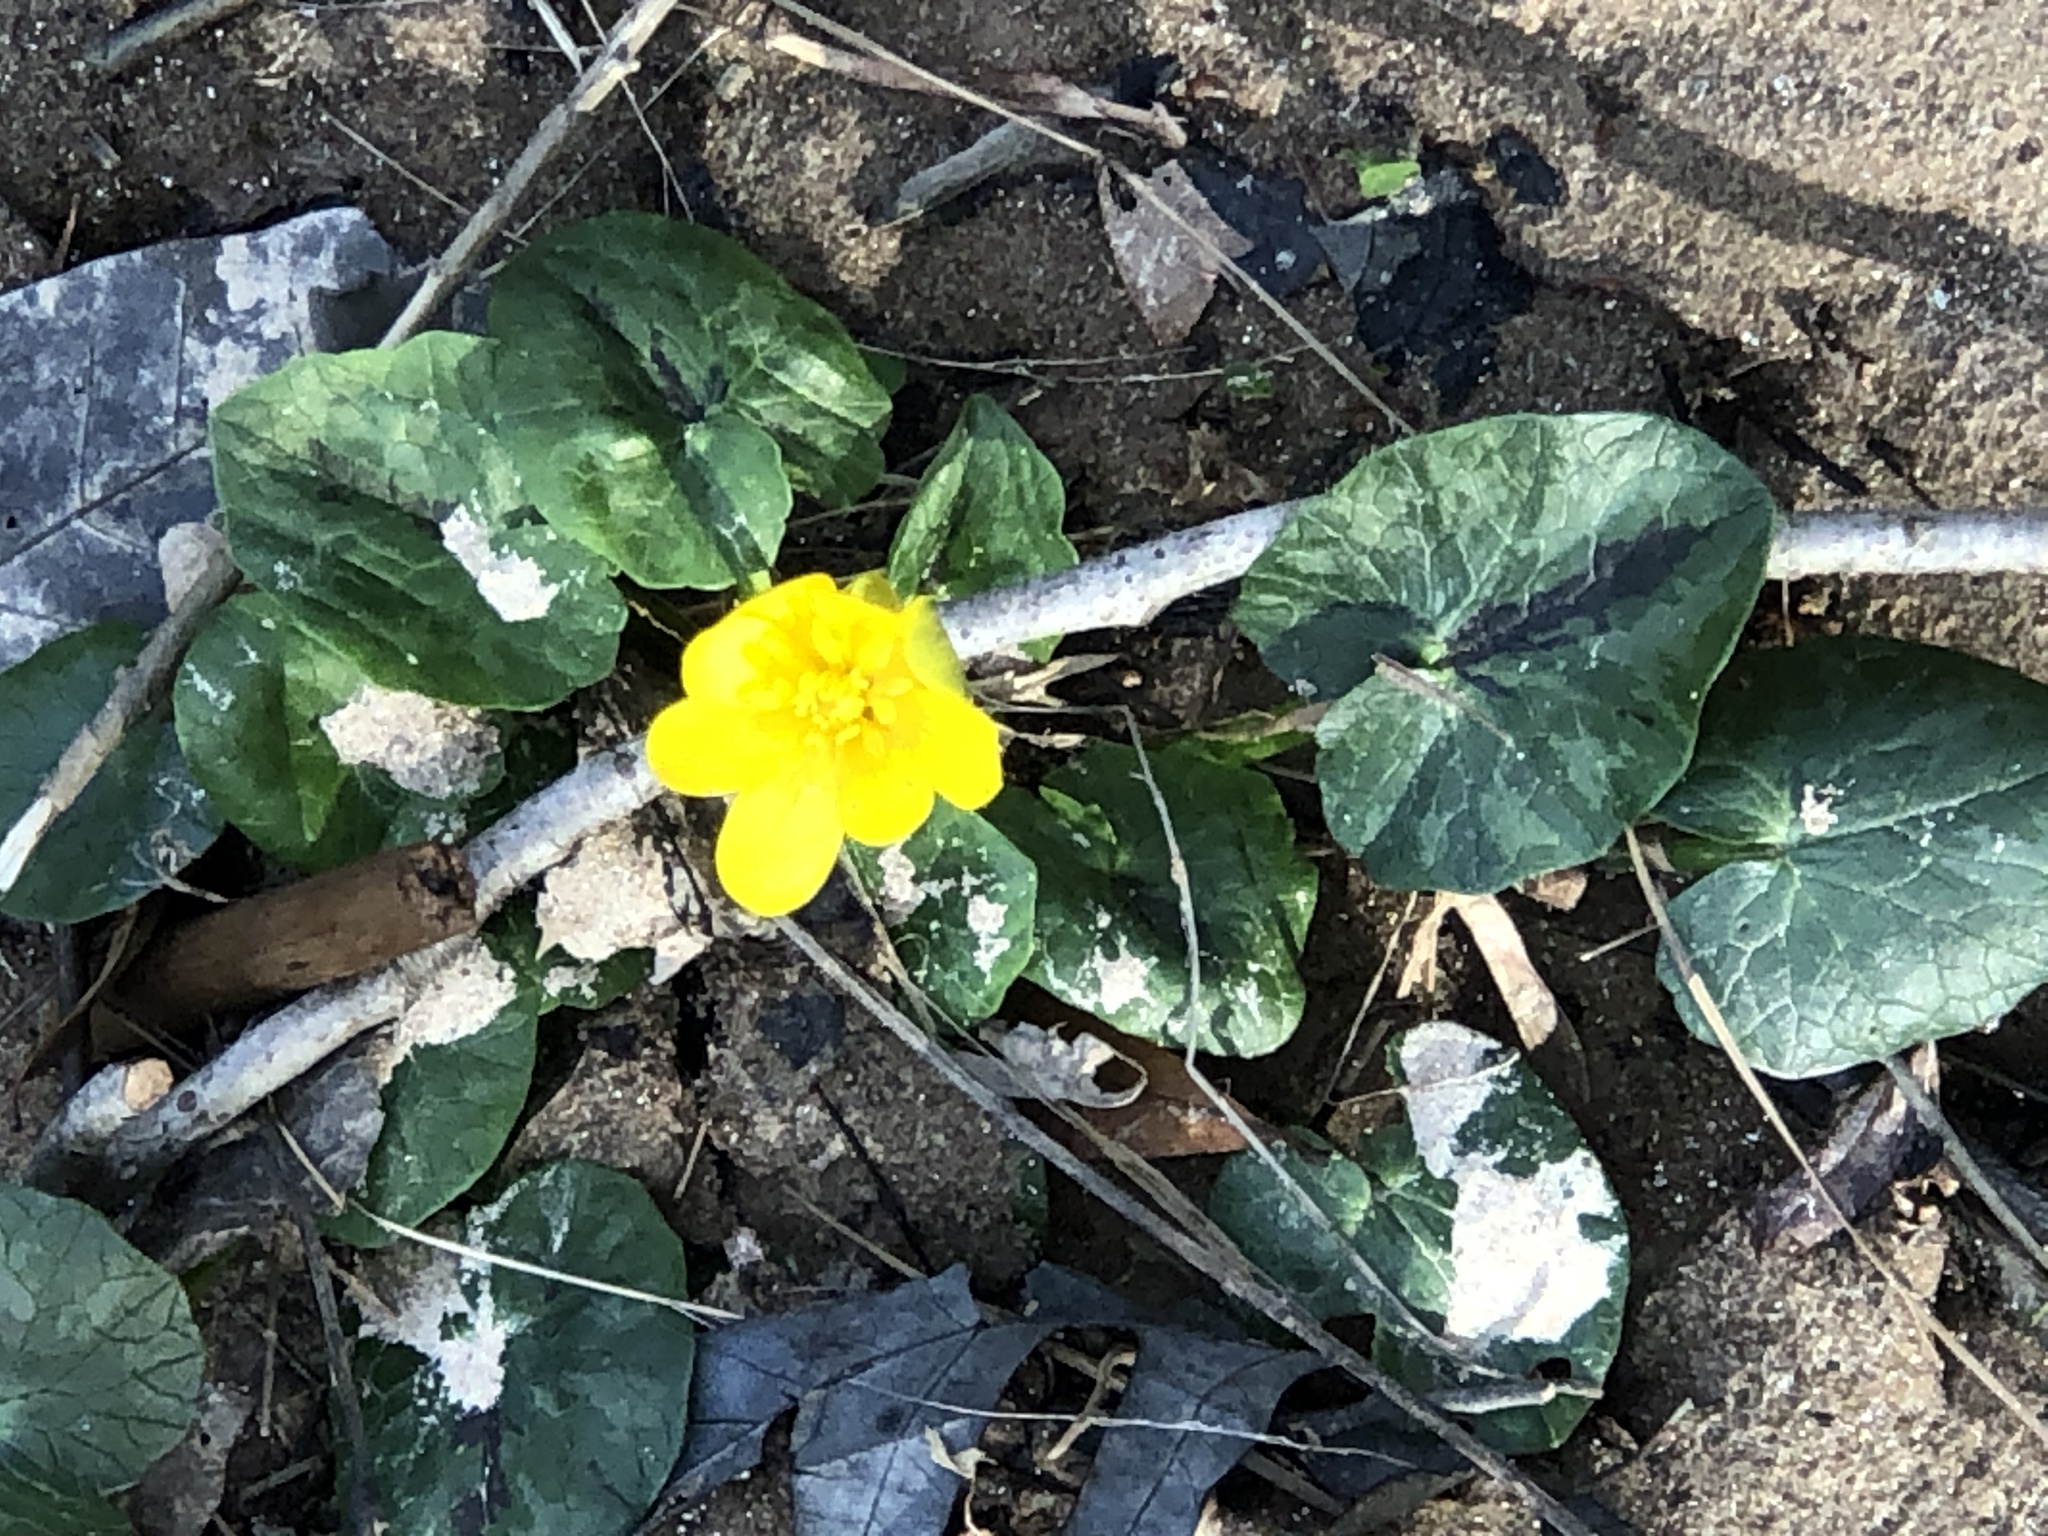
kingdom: Plantae
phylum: Tracheophyta
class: Magnoliopsida
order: Ranunculales
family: Ranunculaceae
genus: Ficaria
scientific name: Ficaria verna
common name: Lesser celandine
